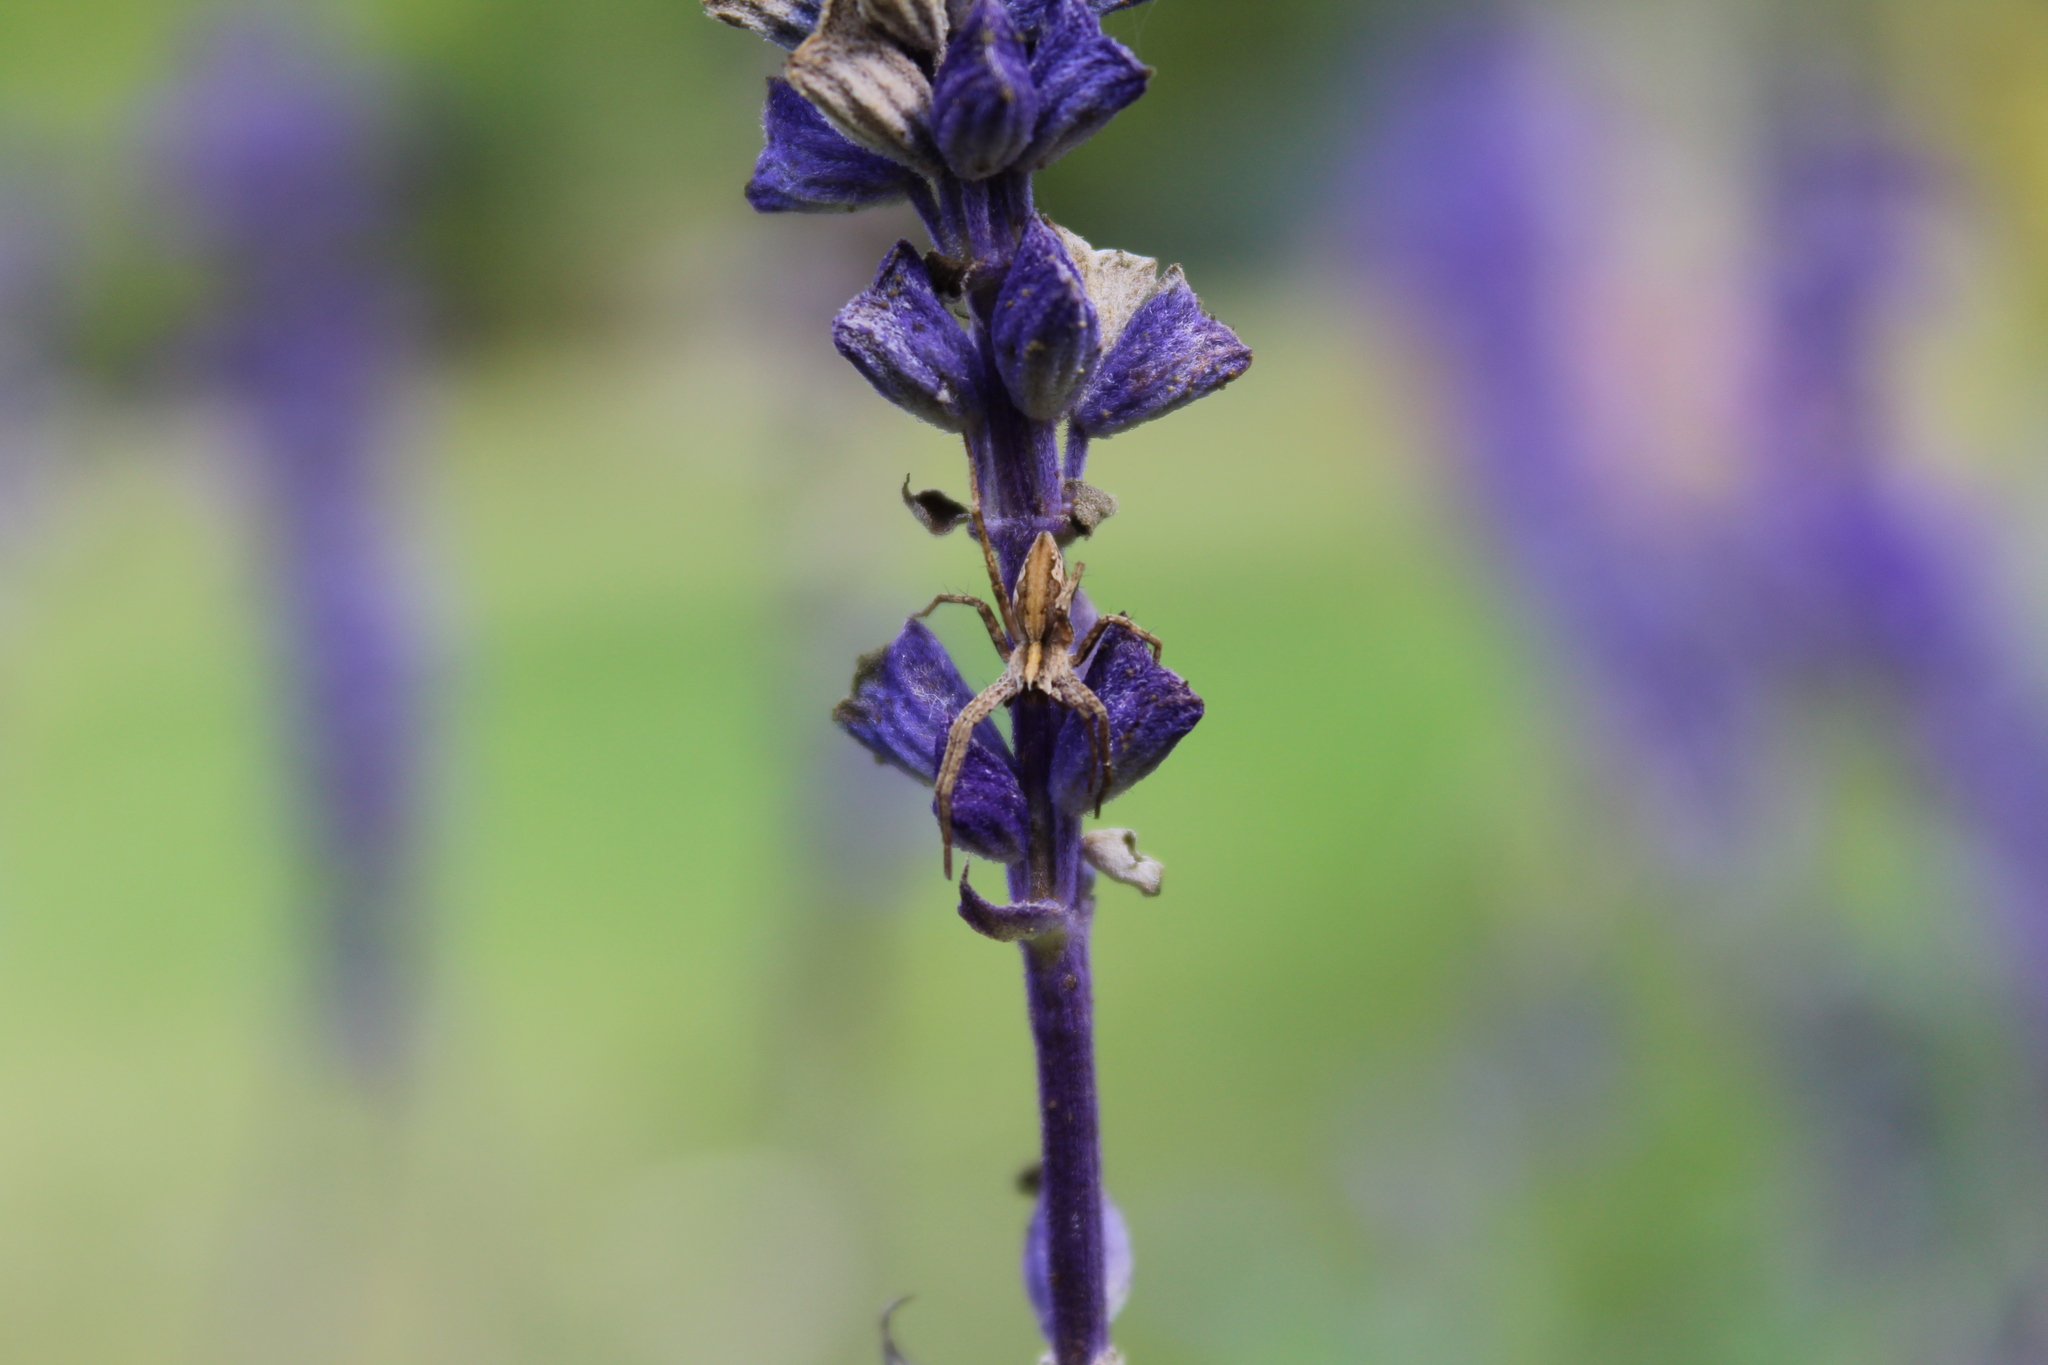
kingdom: Animalia
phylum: Arthropoda
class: Arachnida
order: Araneae
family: Pisauridae
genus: Pisaura
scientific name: Pisaura mirabilis
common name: Tent spider
